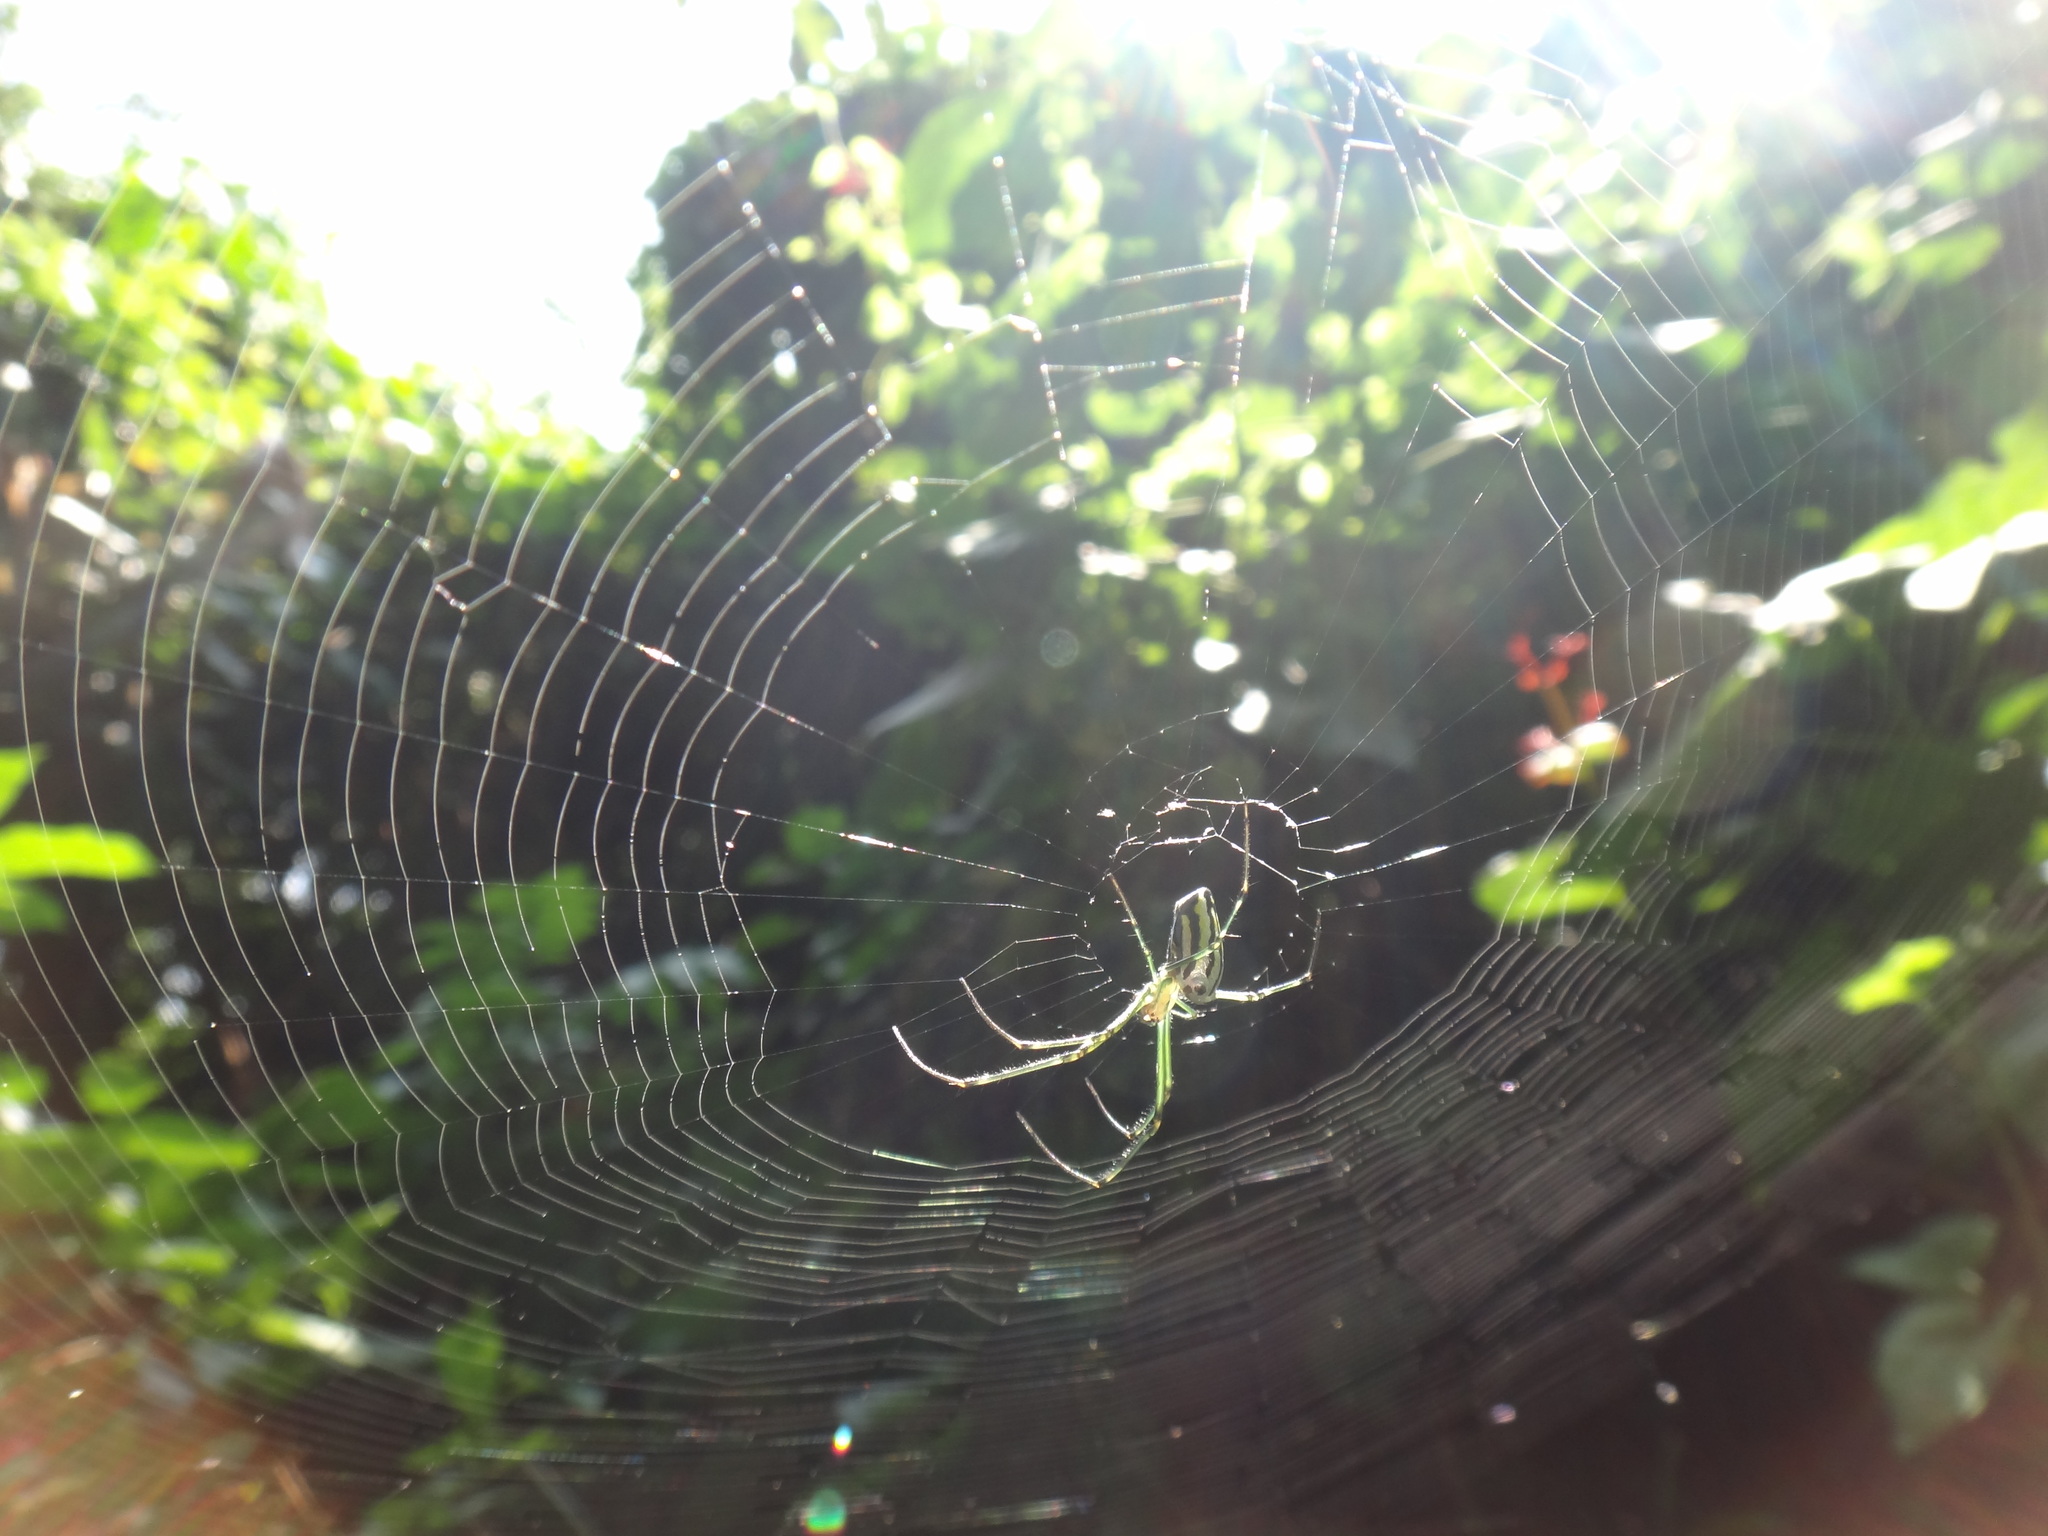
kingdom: Animalia
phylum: Arthropoda
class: Arachnida
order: Araneae
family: Tetragnathidae
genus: Leucauge
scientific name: Leucauge blanda
